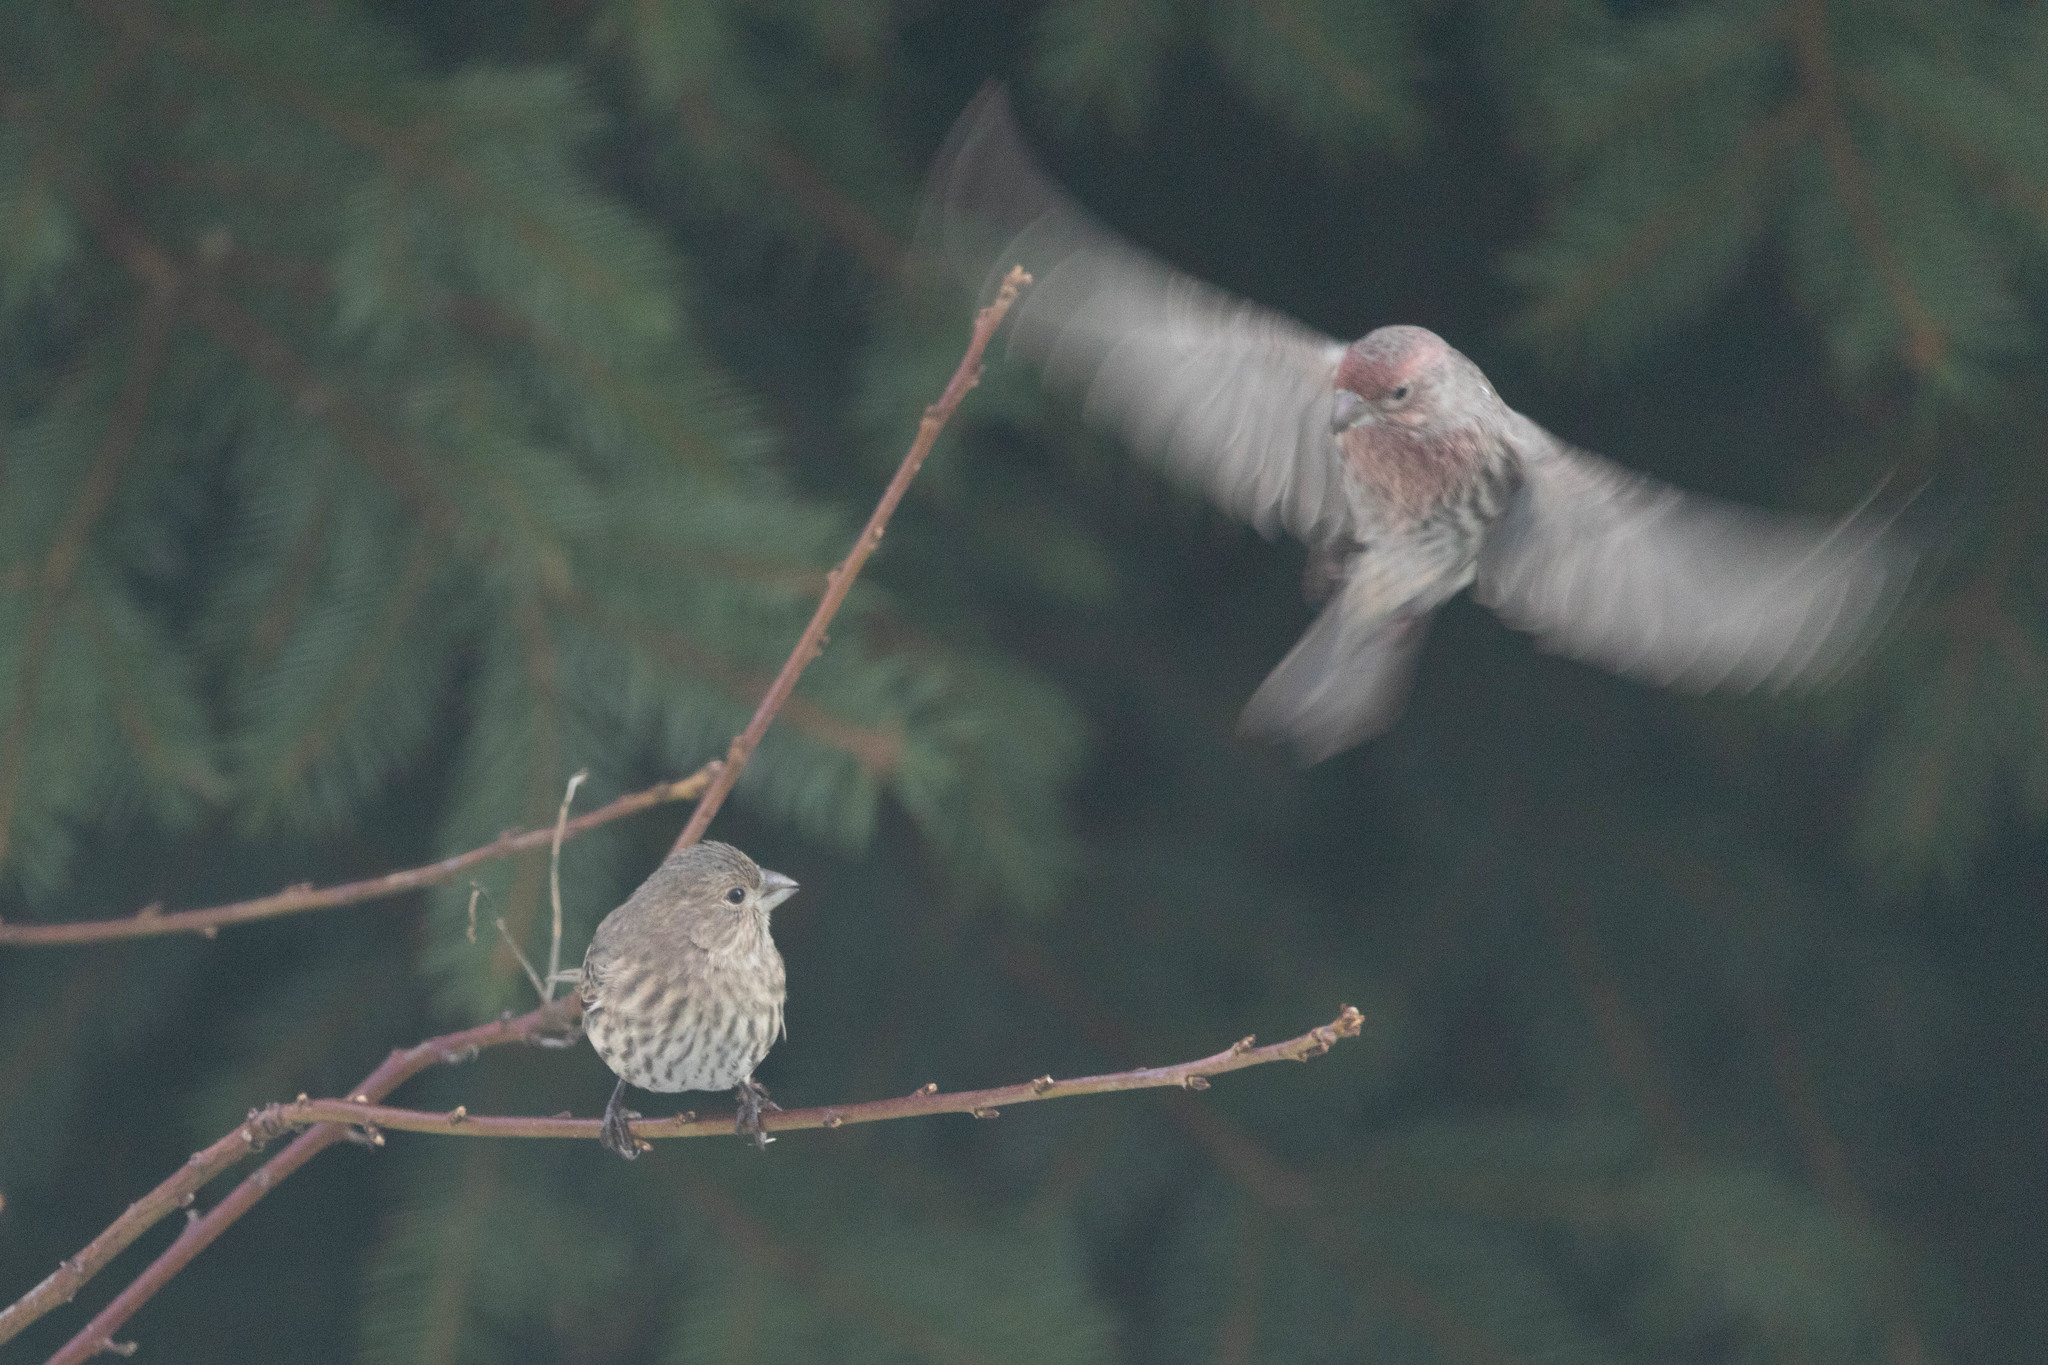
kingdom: Animalia
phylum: Chordata
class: Aves
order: Passeriformes
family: Fringillidae
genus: Haemorhous
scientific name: Haemorhous mexicanus
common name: House finch
